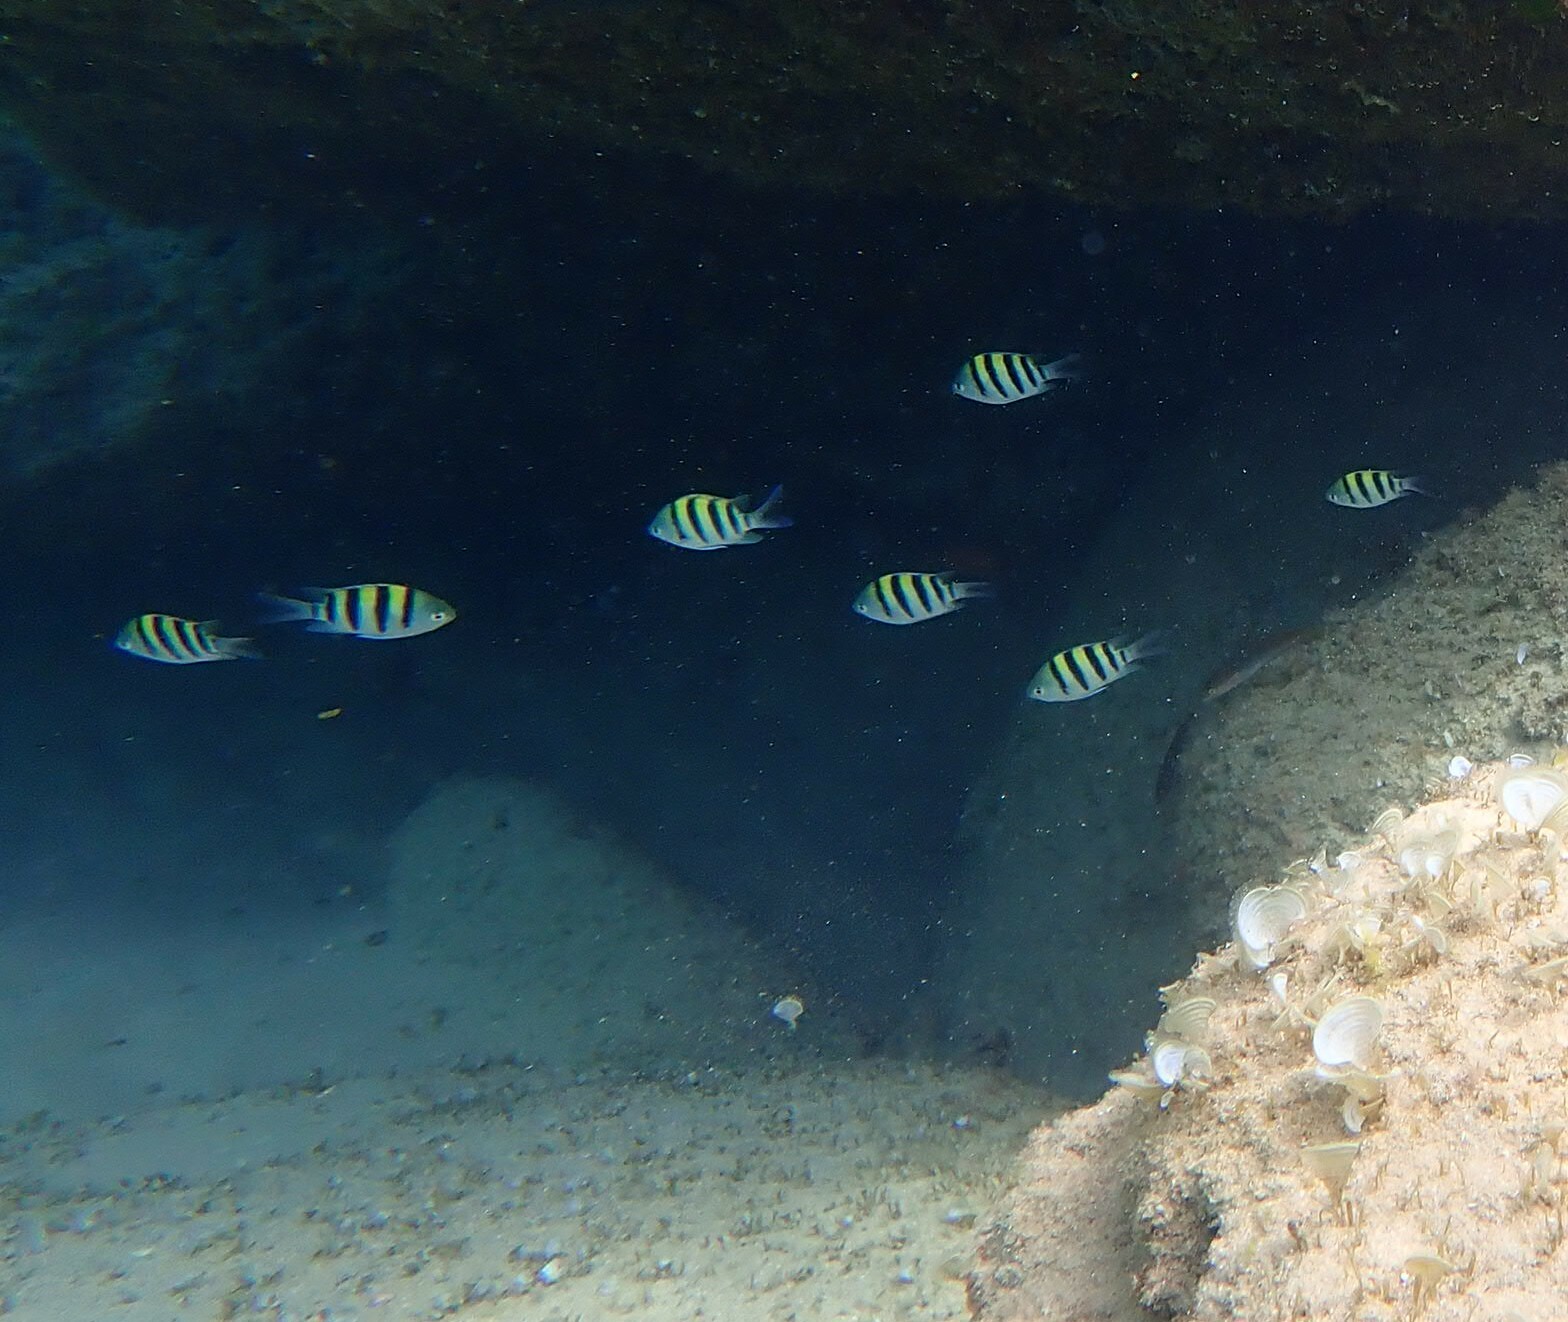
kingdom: Animalia
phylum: Chordata
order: Perciformes
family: Pomacentridae
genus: Abudefduf
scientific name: Abudefduf vaigiensis
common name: Indo-pacific sergeant
